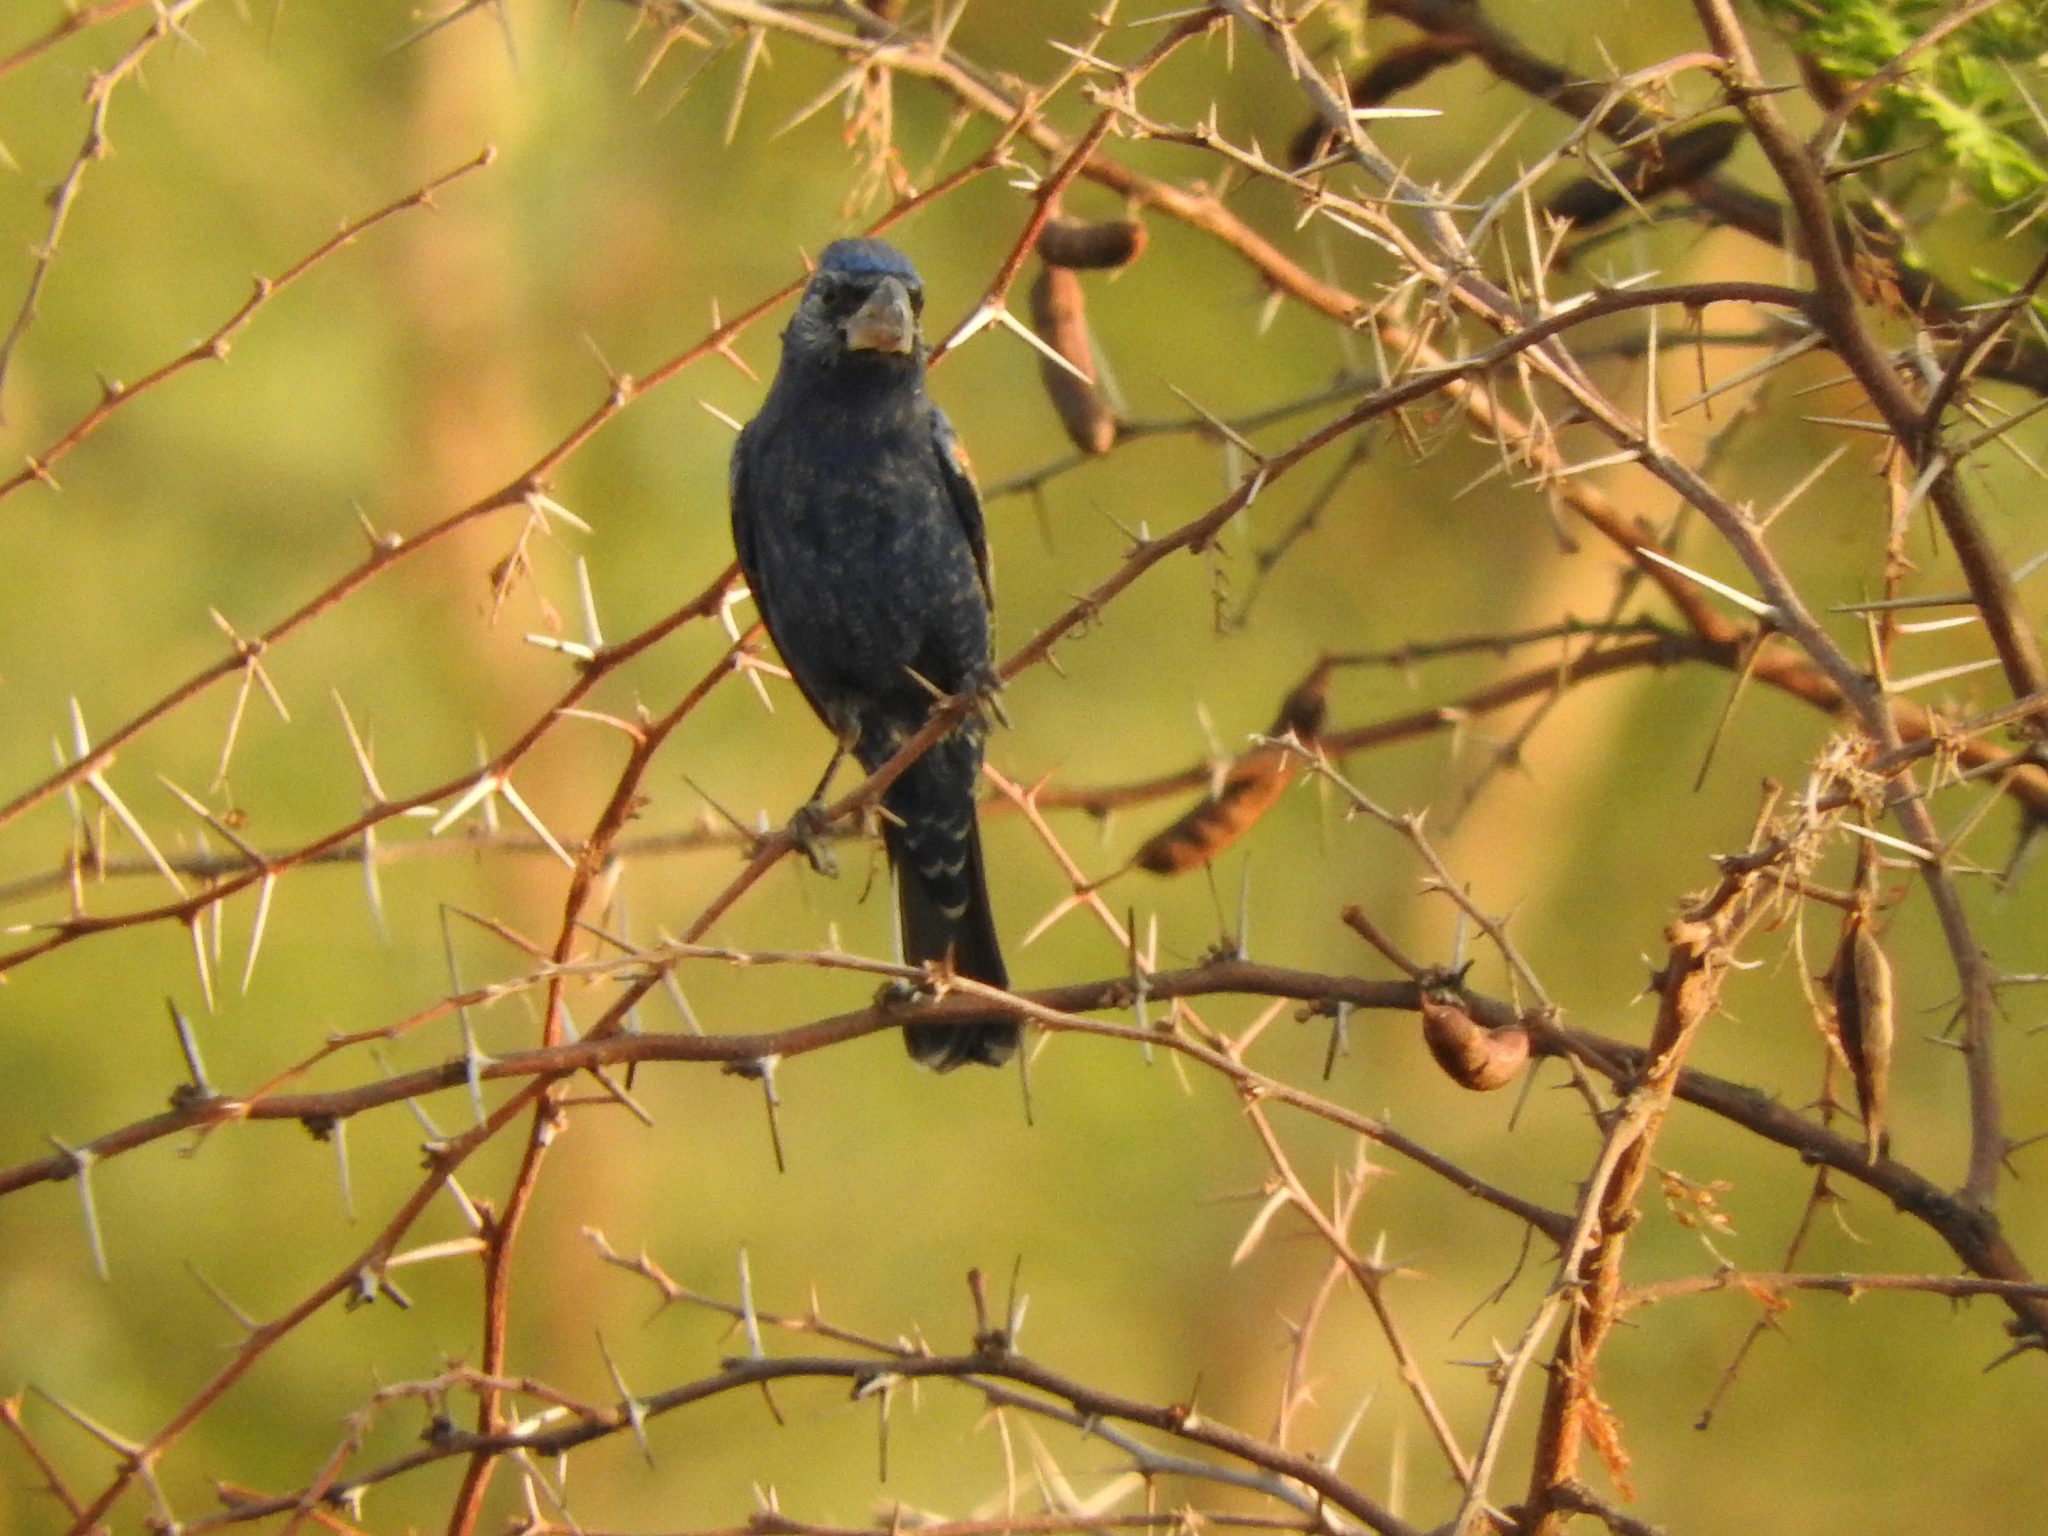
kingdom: Animalia
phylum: Chordata
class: Aves
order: Passeriformes
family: Cardinalidae
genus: Passerina
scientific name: Passerina caerulea
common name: Blue grosbeak
